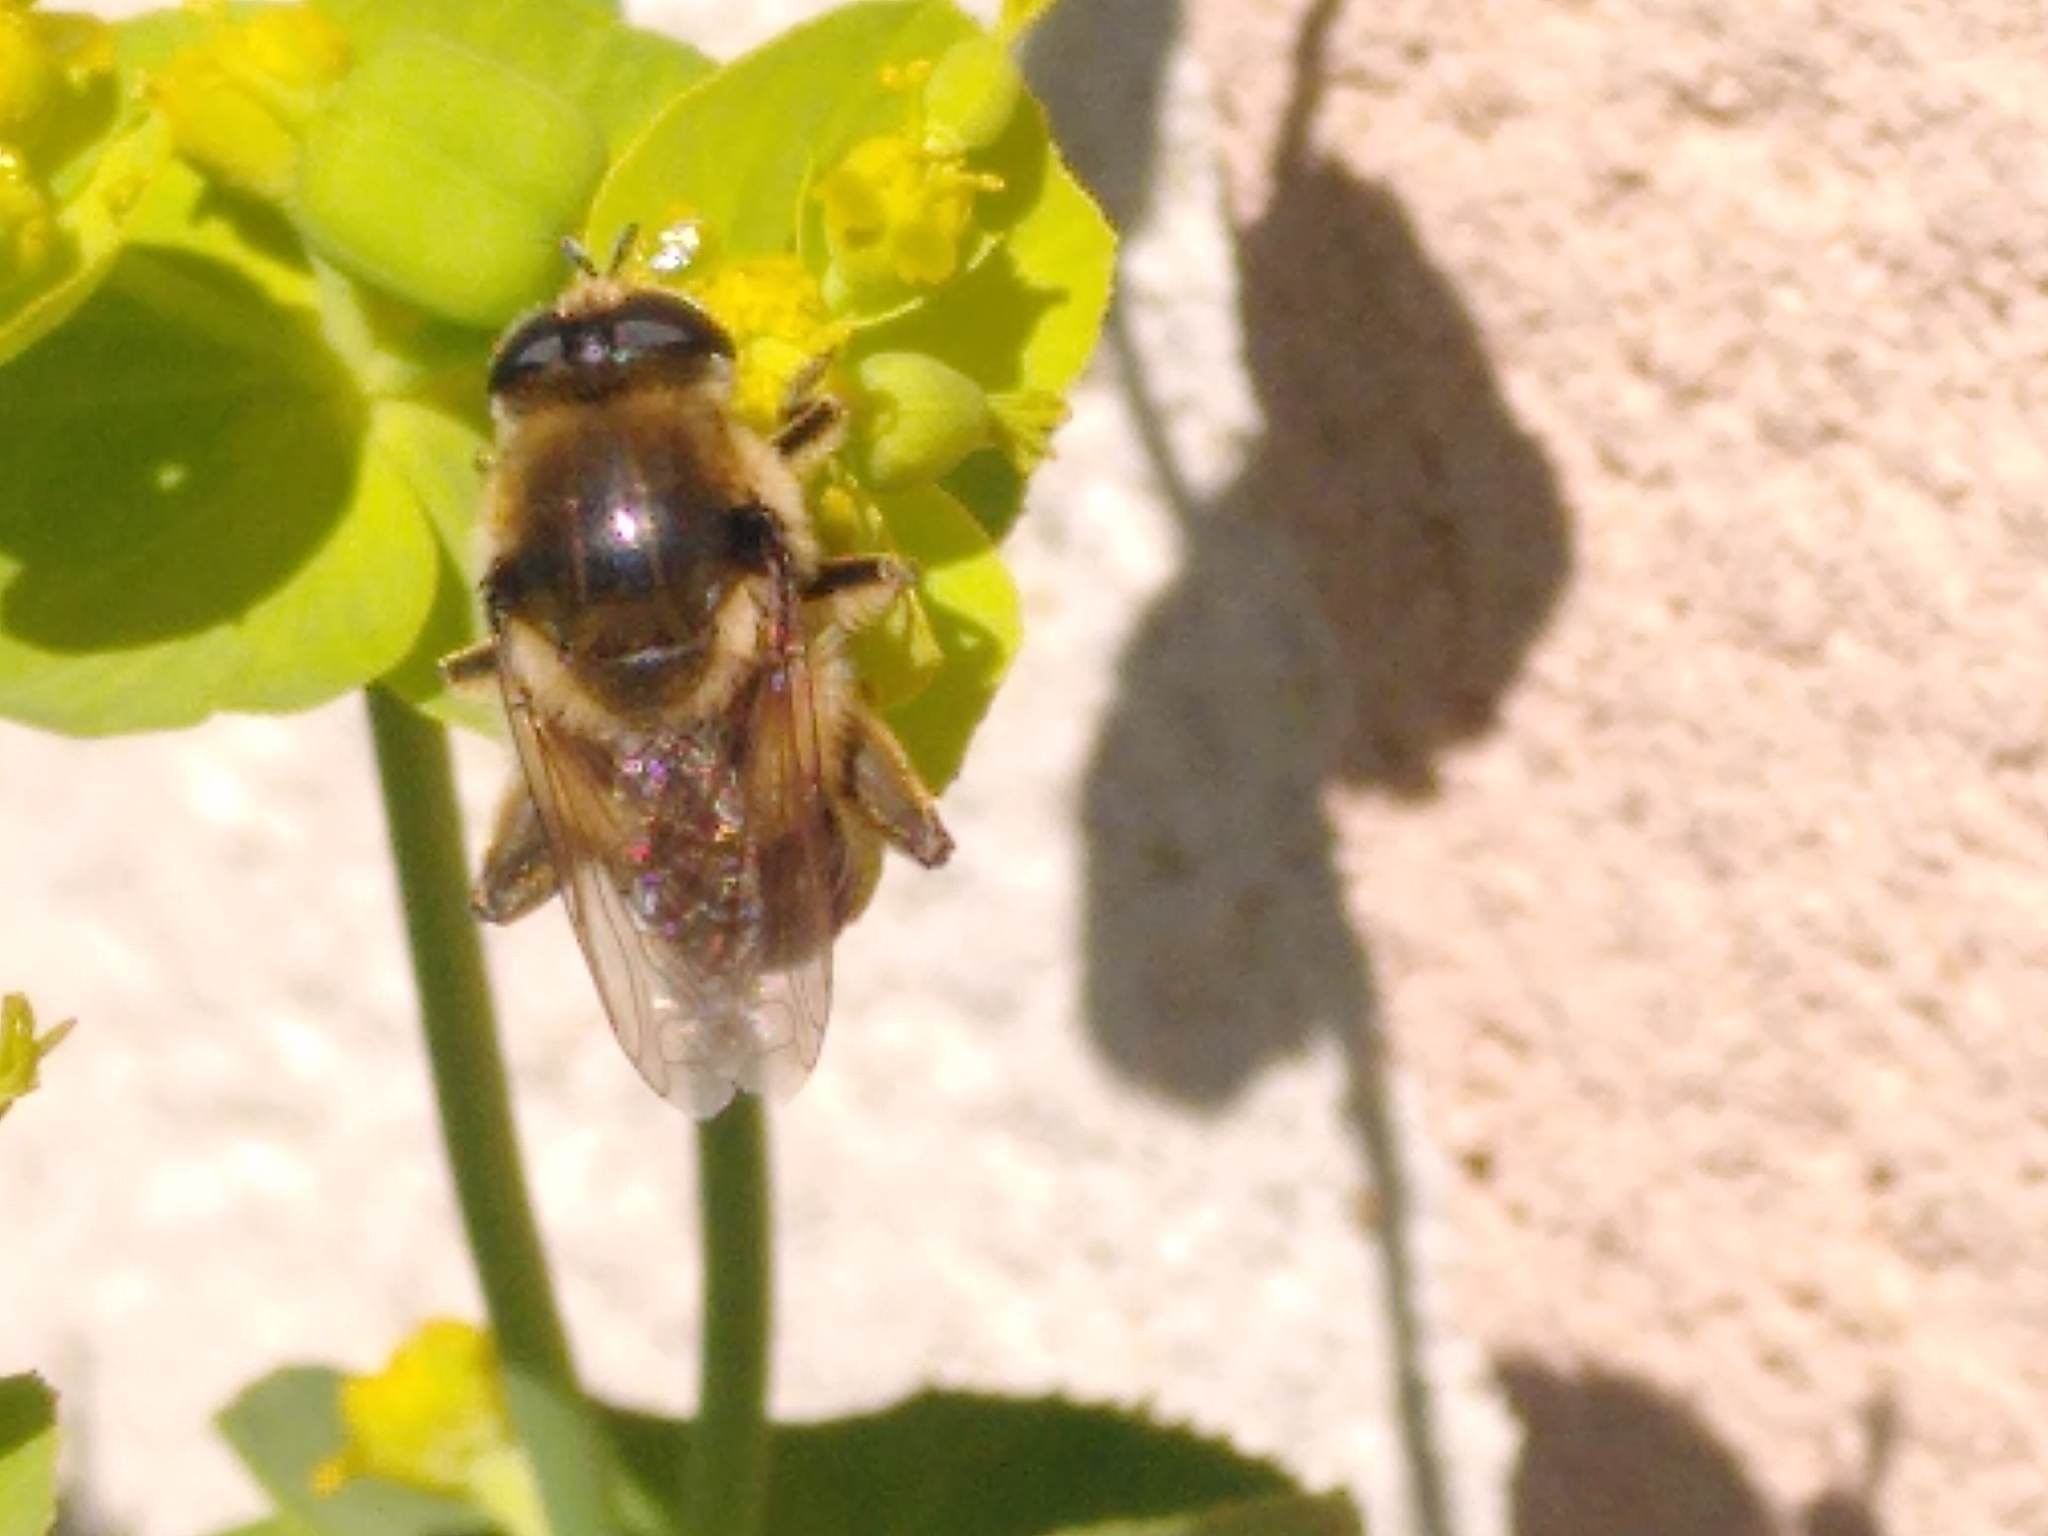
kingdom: Animalia
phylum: Arthropoda
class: Insecta
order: Diptera
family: Syrphidae
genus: Merodon
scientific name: Merodon clavipes
